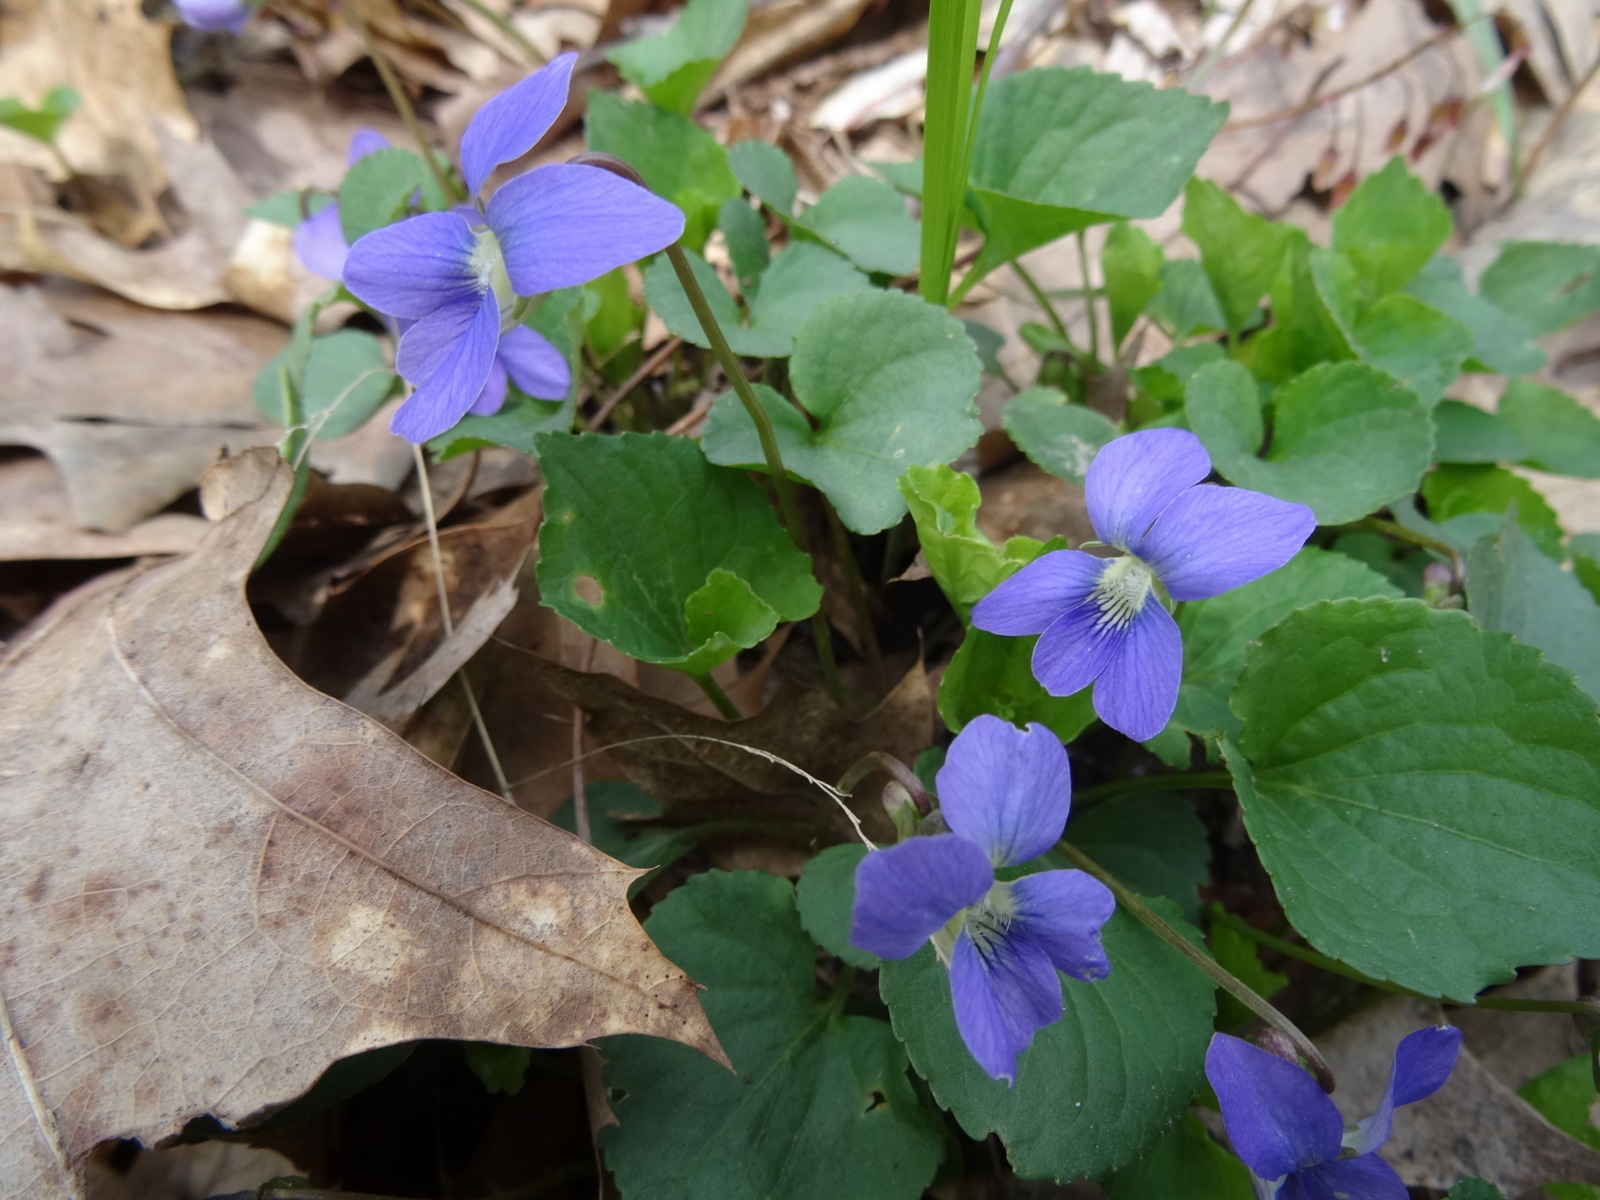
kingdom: Plantae
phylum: Tracheophyta
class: Magnoliopsida
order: Malpighiales
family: Violaceae
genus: Viola
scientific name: Viola nephrophylla
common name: Blue meadow violet
